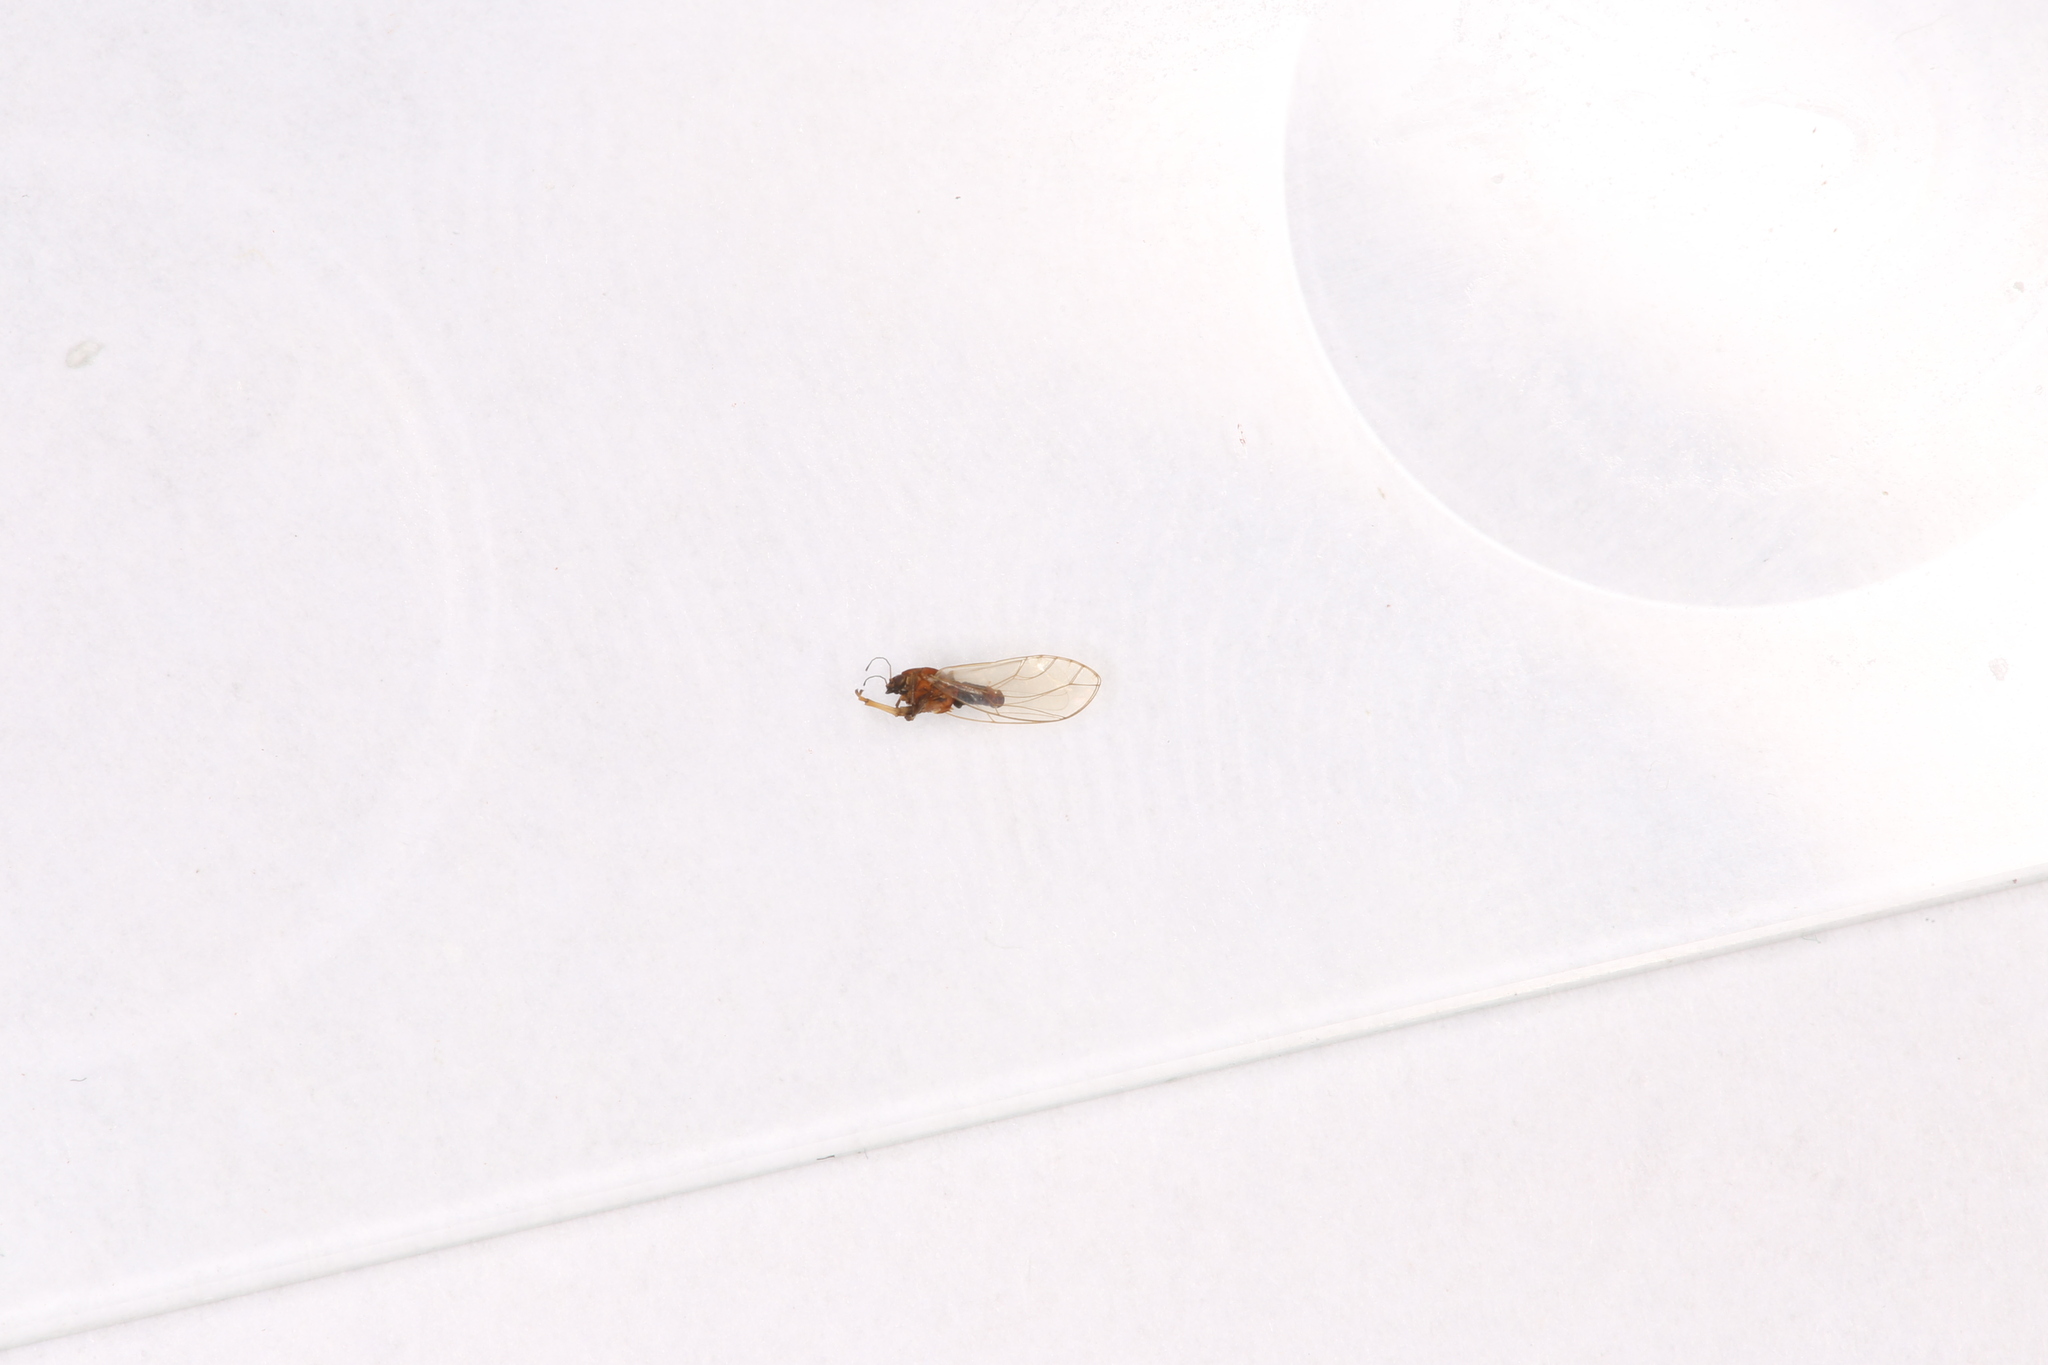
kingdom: Animalia
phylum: Arthropoda
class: Insecta
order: Hemiptera
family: Triozidae
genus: Trioza
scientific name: Trioza remota
